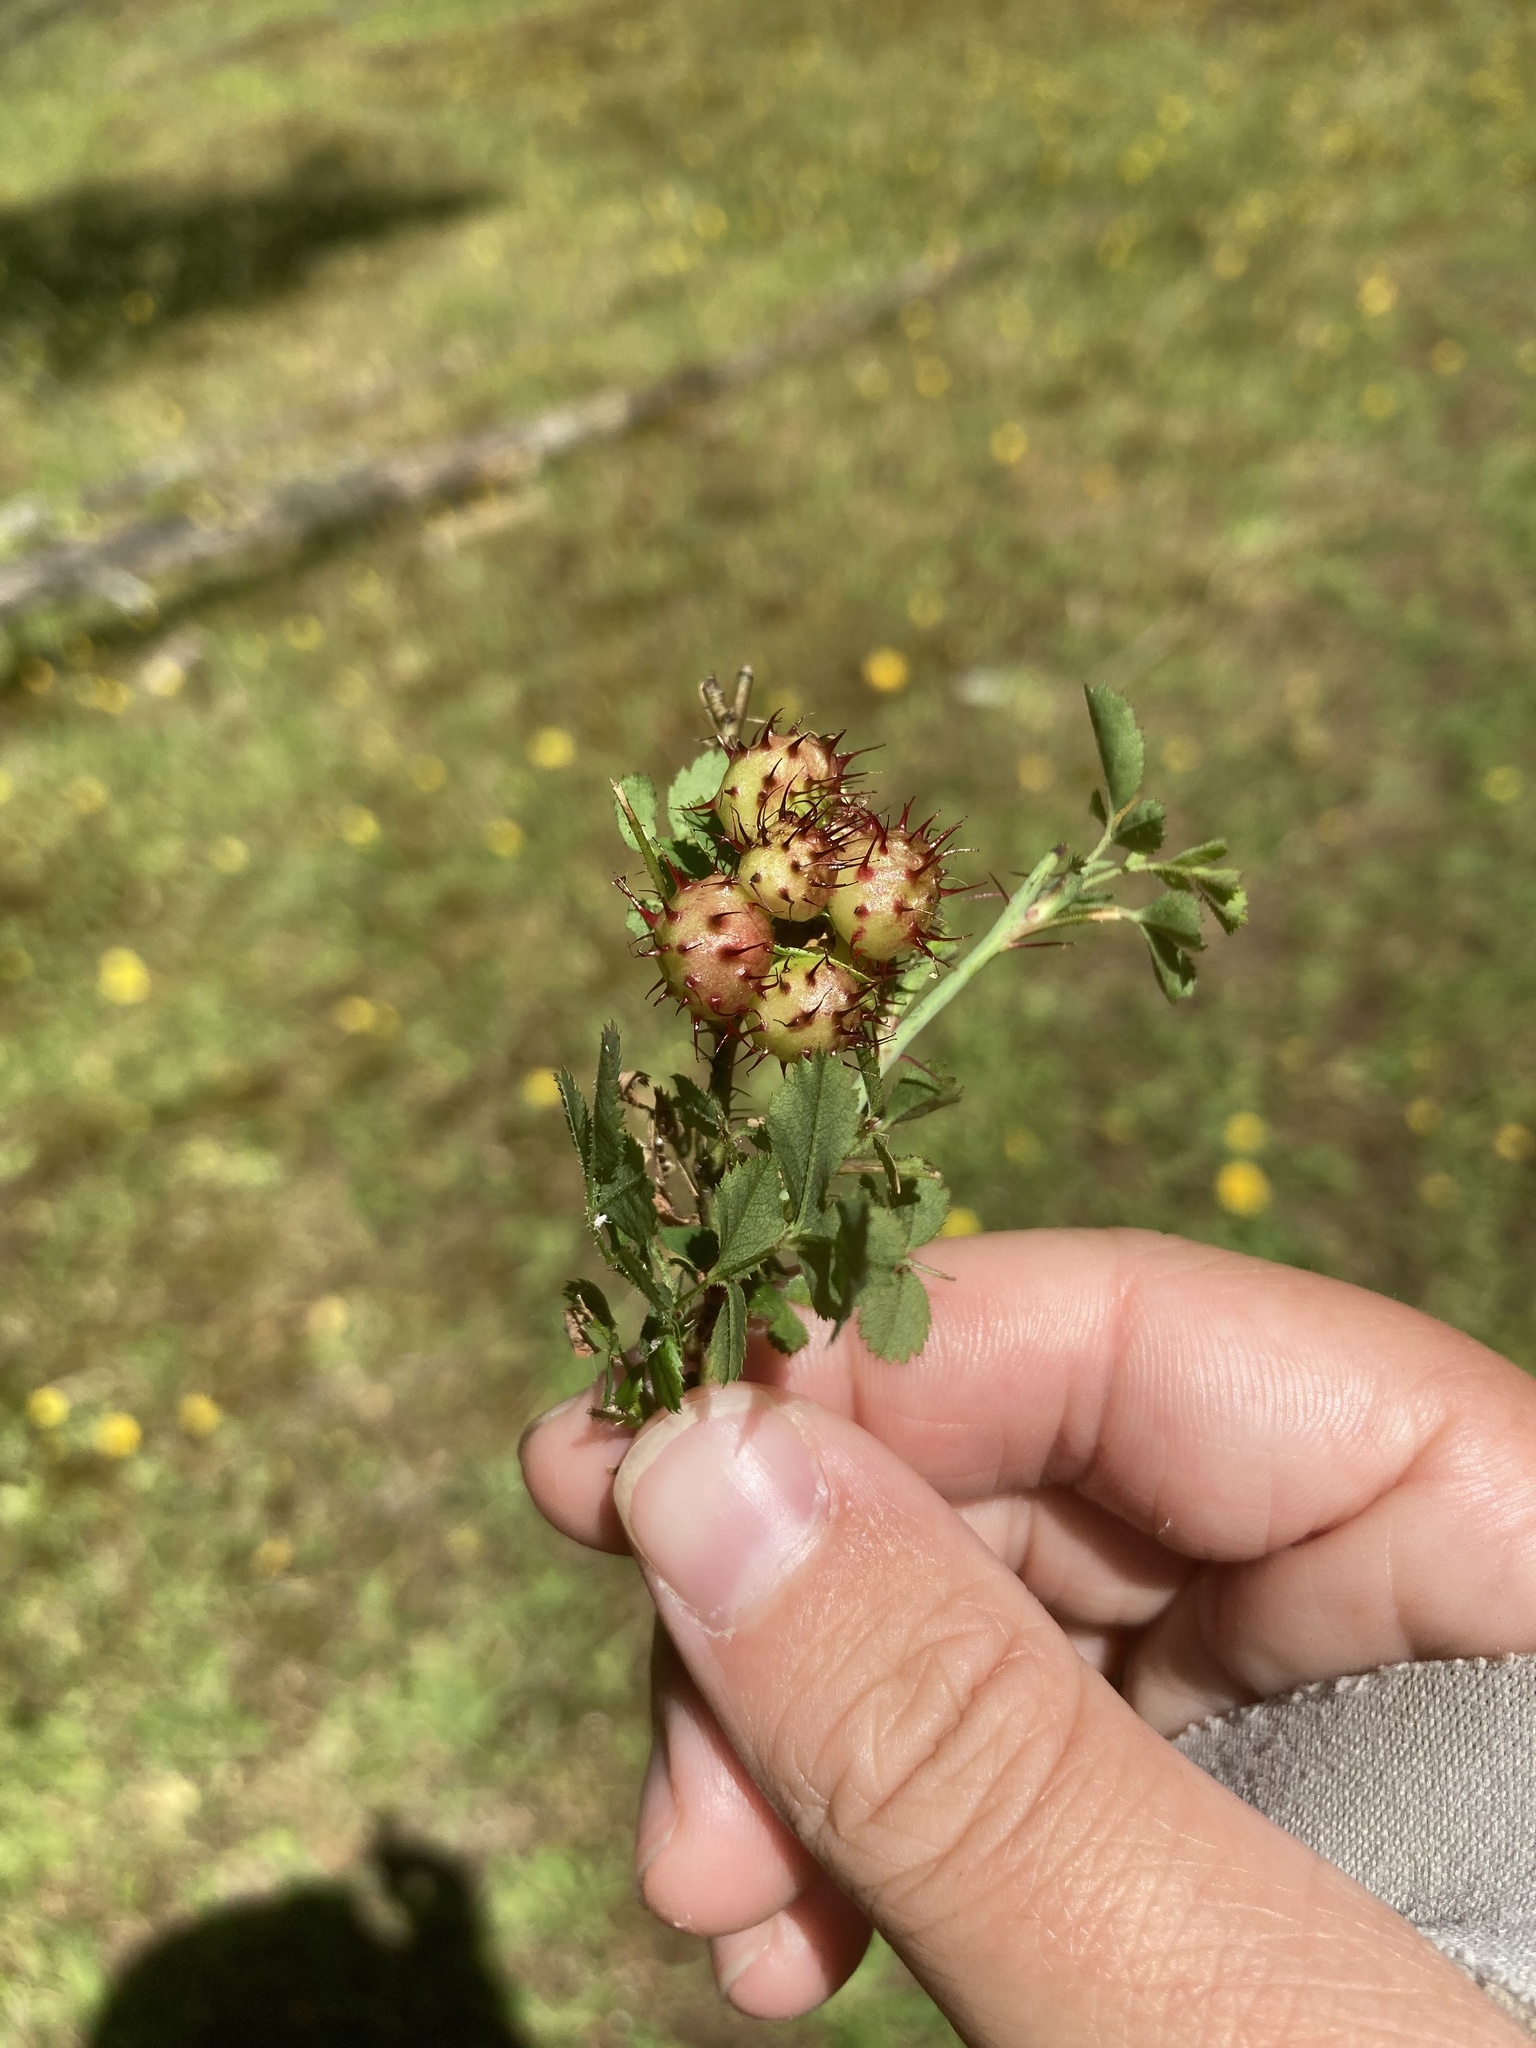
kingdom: Animalia
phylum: Arthropoda
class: Insecta
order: Hymenoptera
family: Cynipidae
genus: Diplolepis
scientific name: Diplolepis polita
